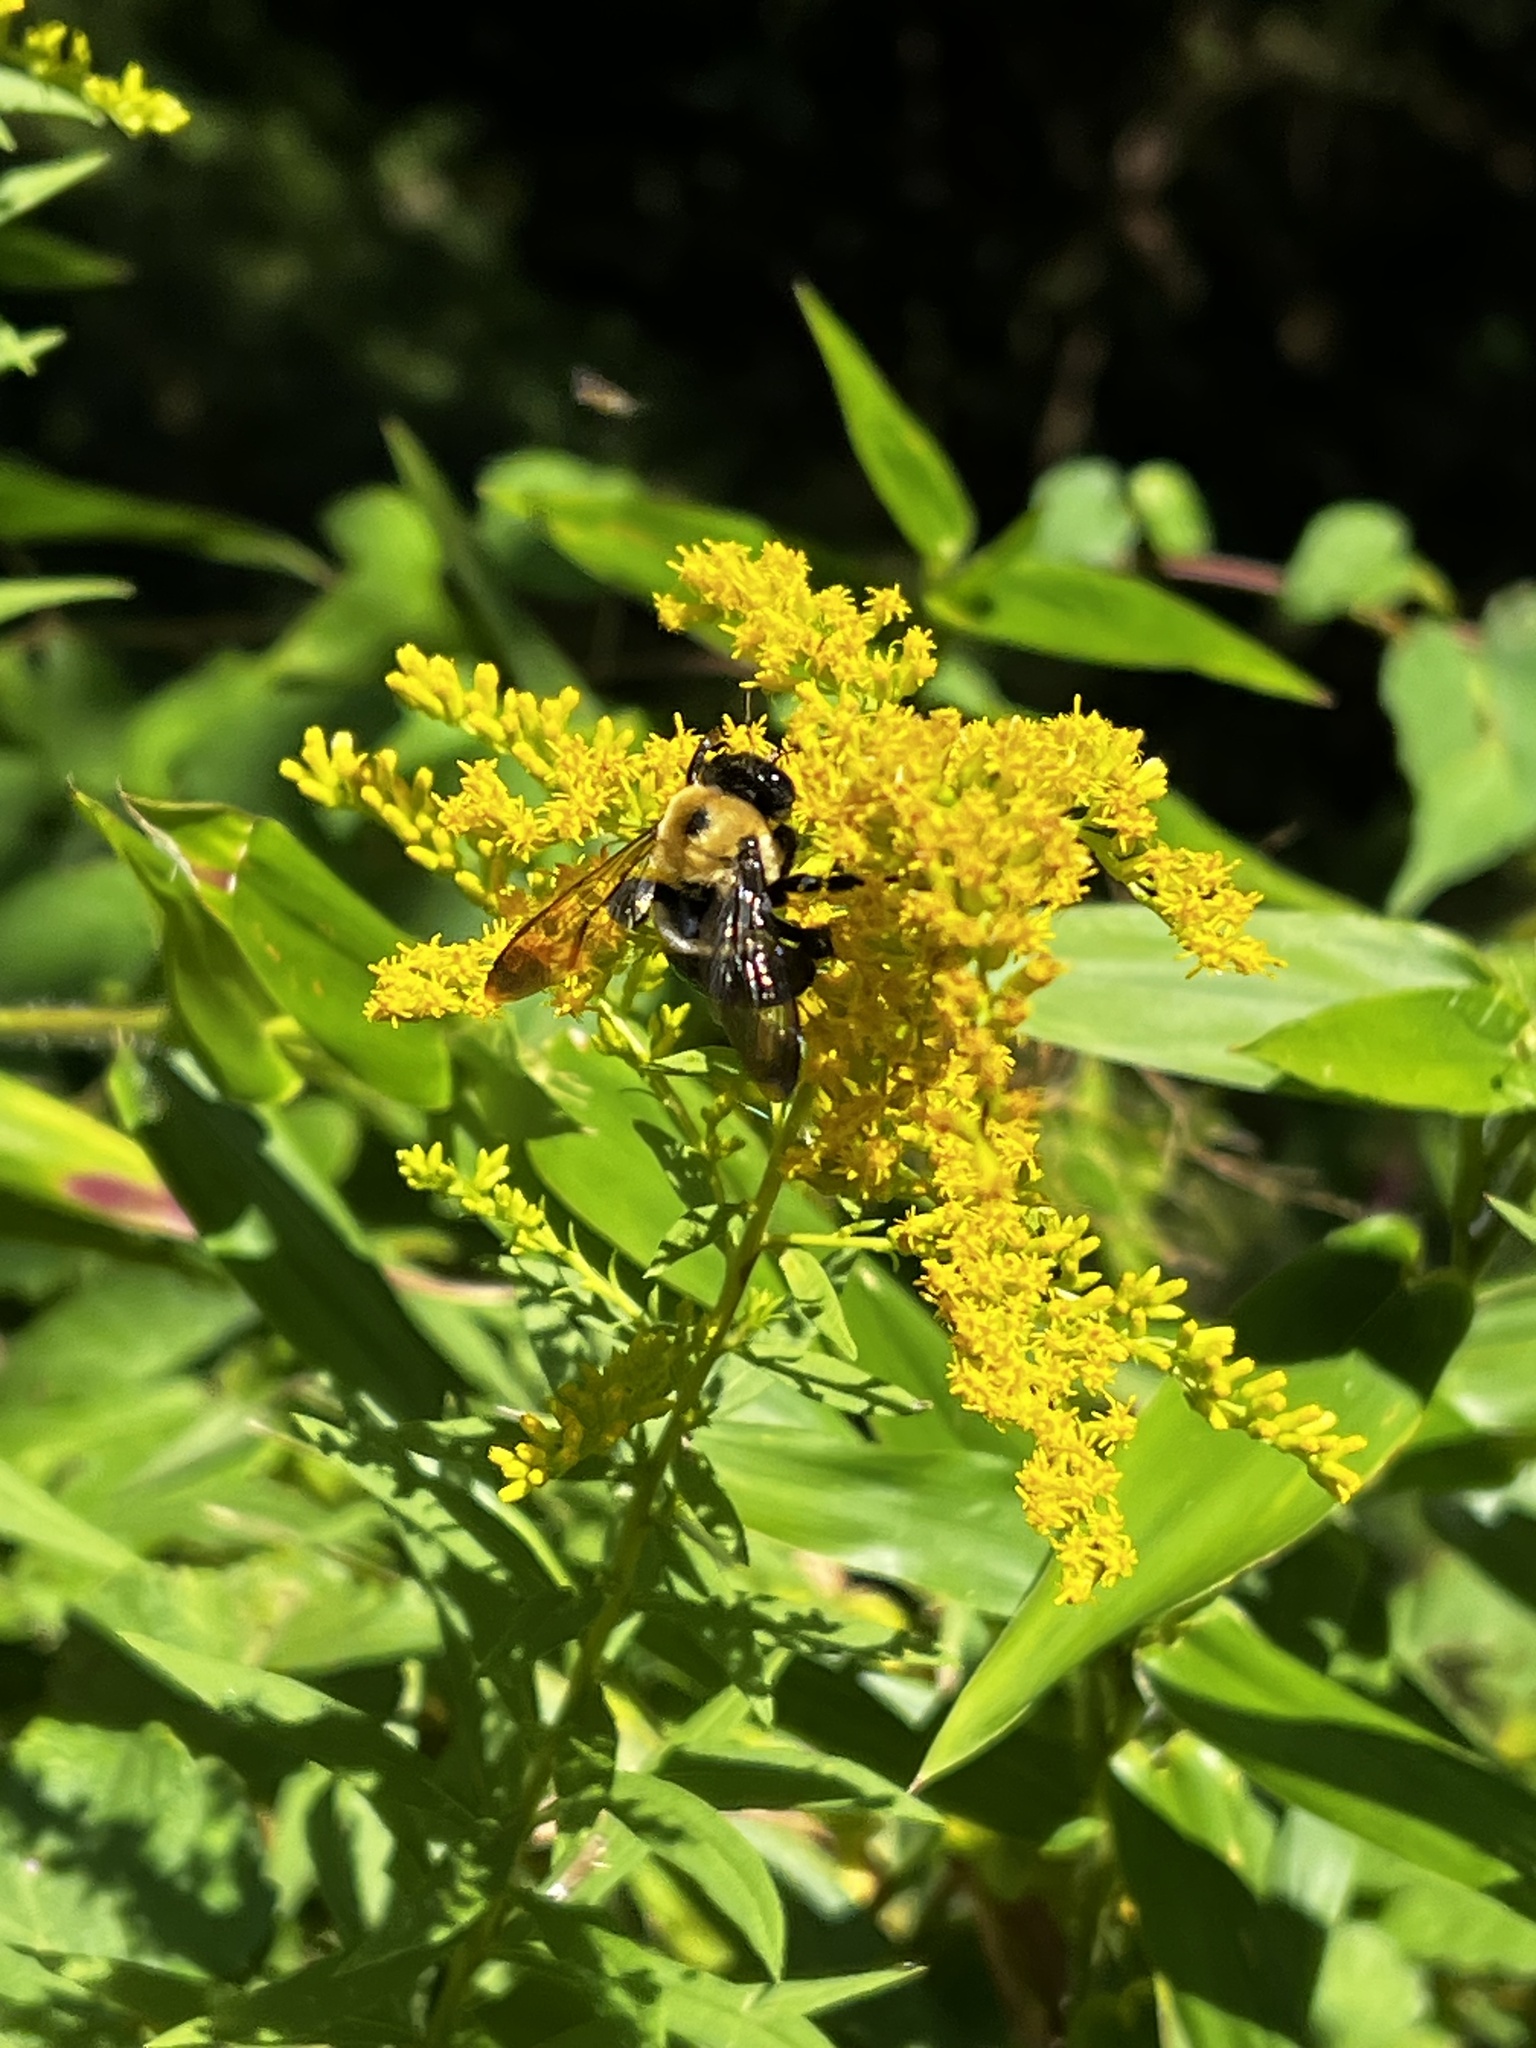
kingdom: Animalia
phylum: Arthropoda
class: Insecta
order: Hymenoptera
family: Apidae
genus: Xylocopa
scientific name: Xylocopa virginica
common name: Carpenter bee
